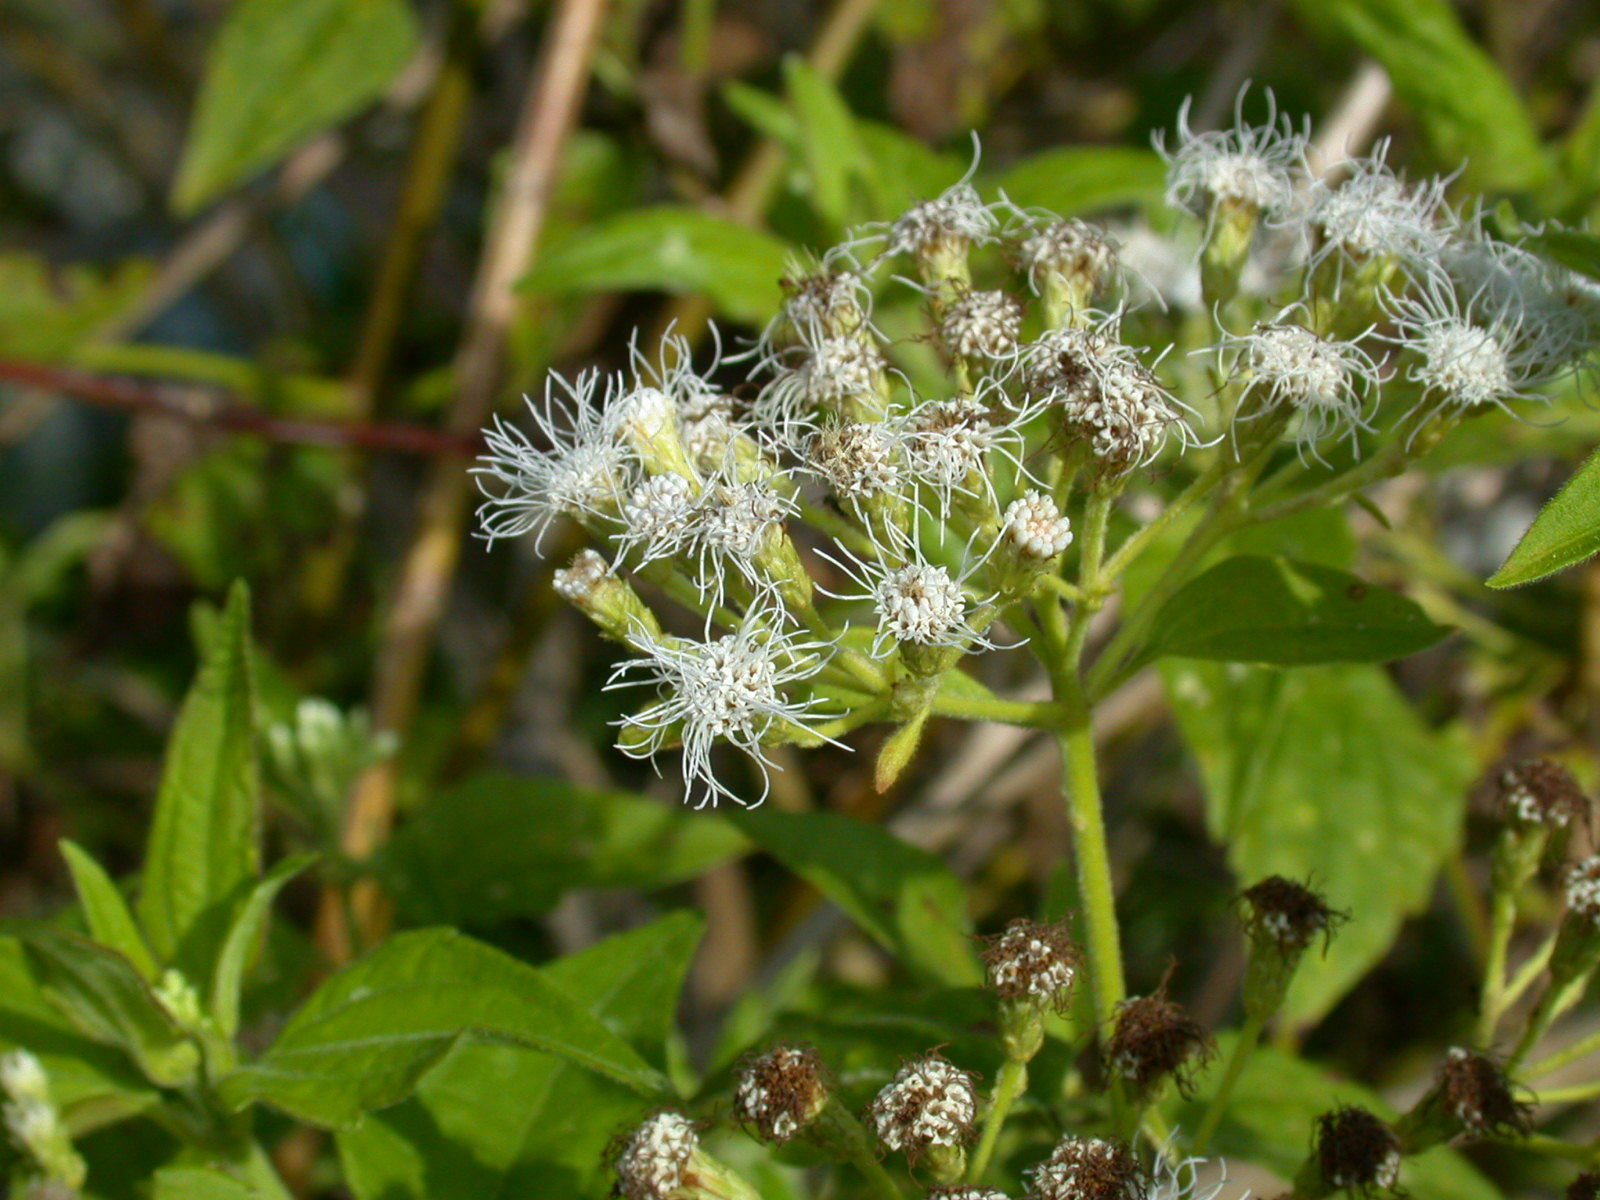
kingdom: Plantae
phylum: Tracheophyta
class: Magnoliopsida
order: Asterales
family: Asteraceae
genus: Chromolaena
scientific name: Chromolaena odorata
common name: Siamweed
